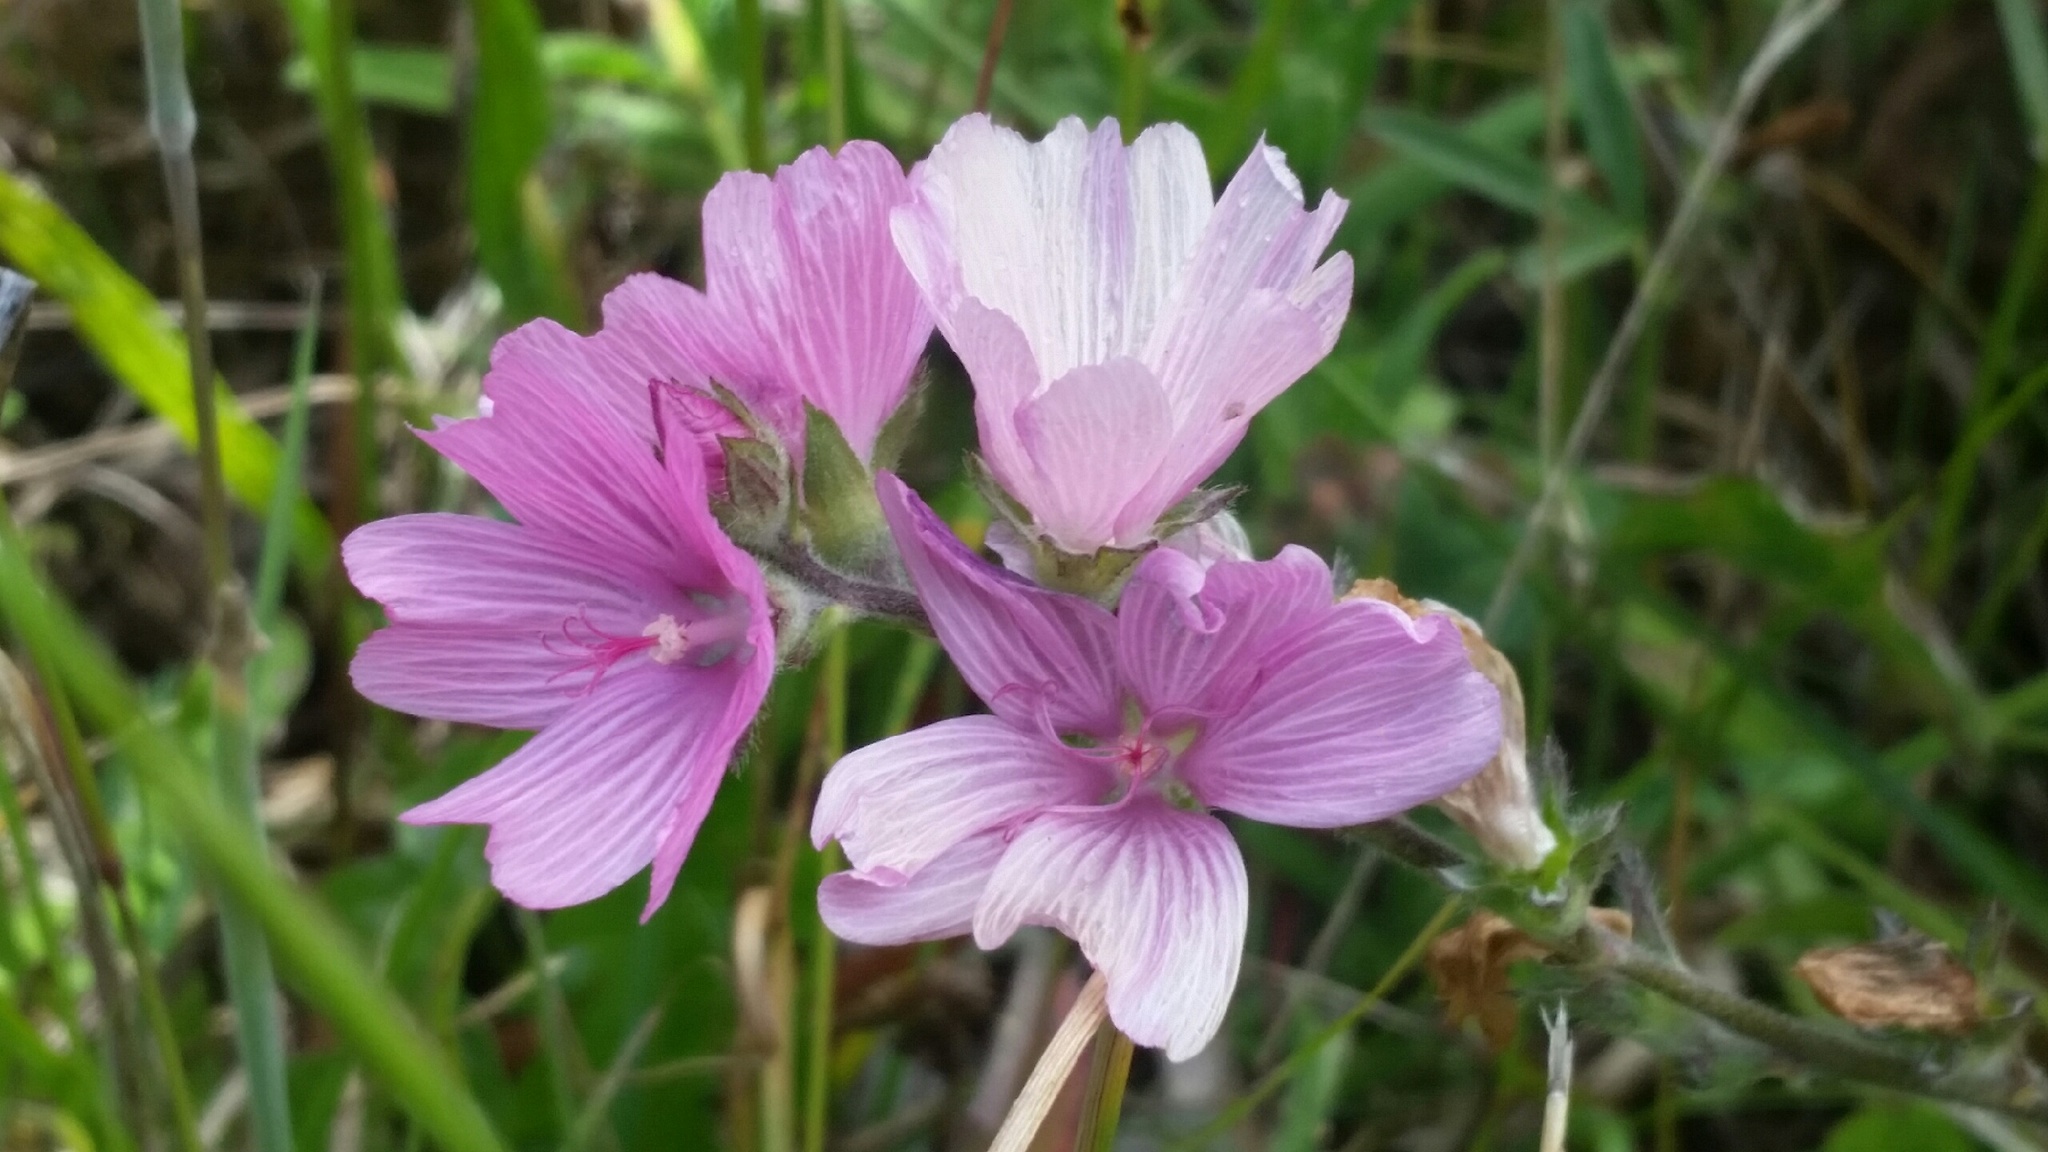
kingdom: Plantae
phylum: Tracheophyta
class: Magnoliopsida
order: Malvales
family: Malvaceae
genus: Sidalcea
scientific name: Sidalcea malviflora
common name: Greek mallow
